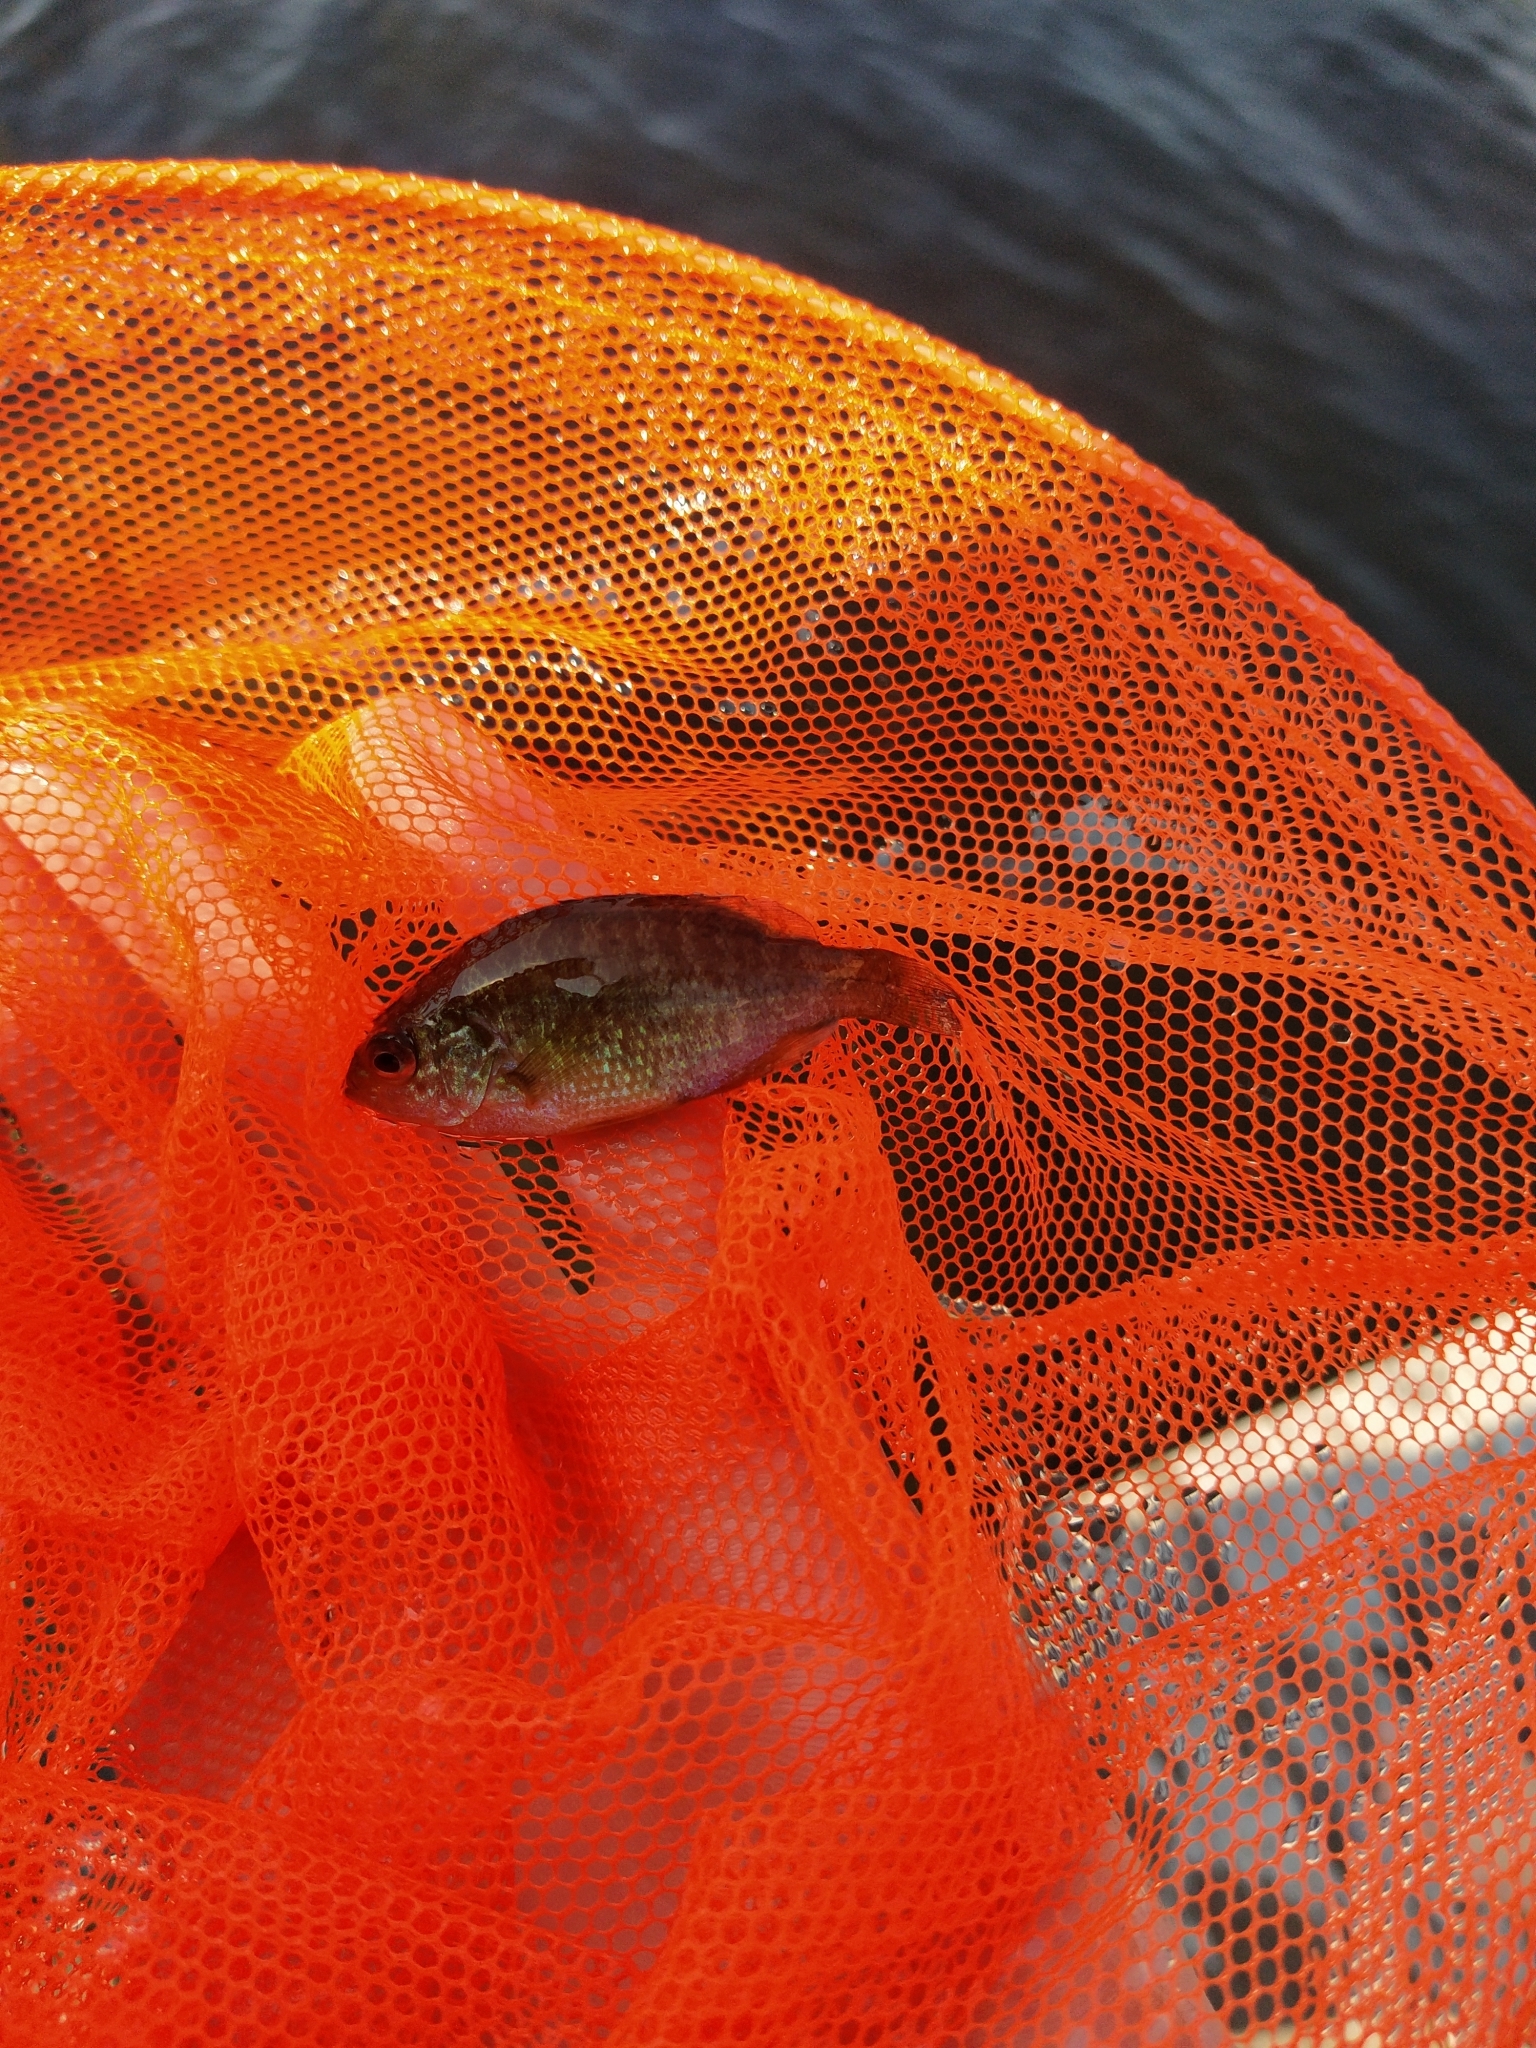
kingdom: Animalia
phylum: Chordata
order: Perciformes
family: Centrarchidae
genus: Lepomis
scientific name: Lepomis gibbosus
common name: Pumpkinseed
